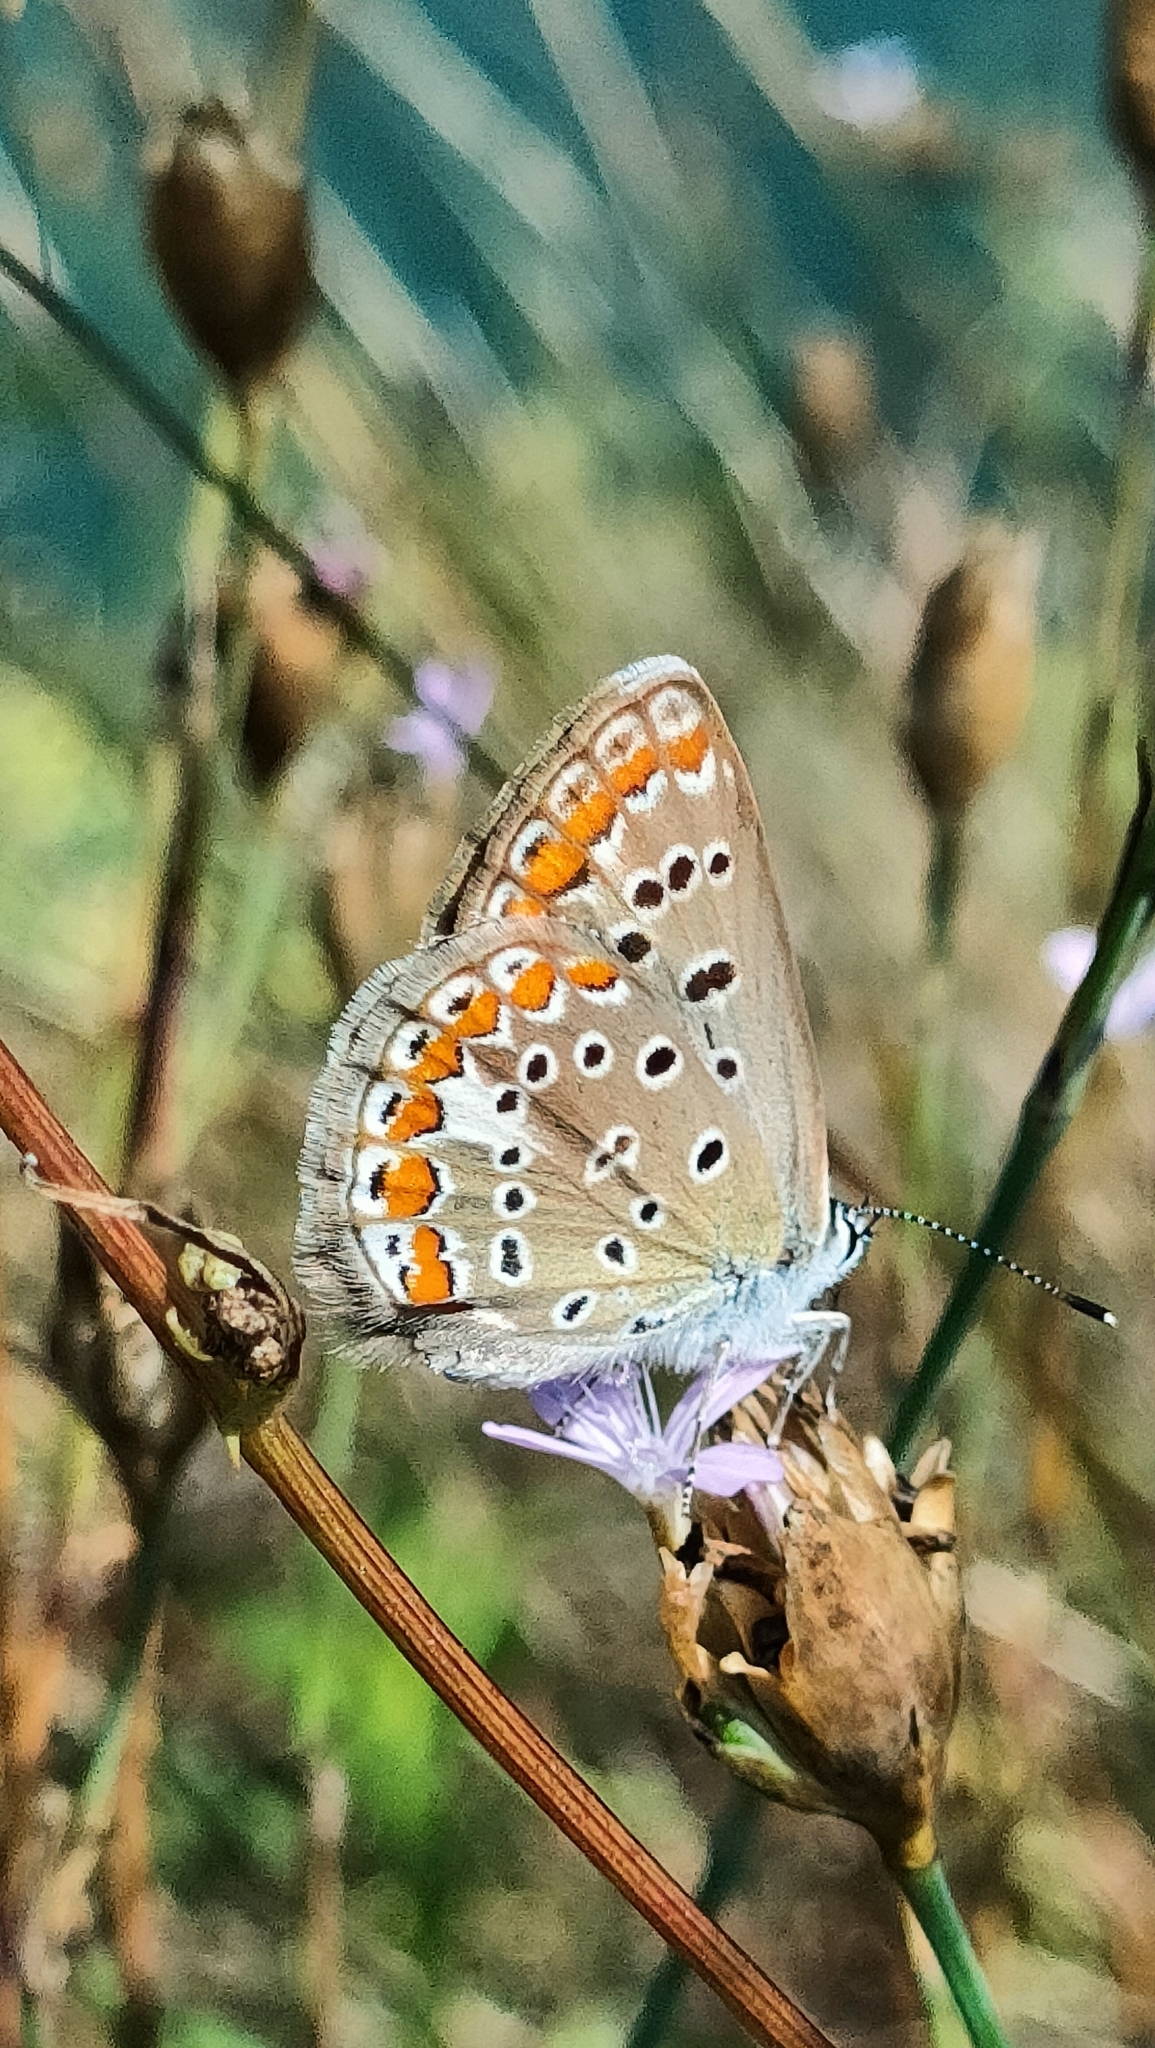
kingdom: Animalia
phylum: Arthropoda
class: Insecta
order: Lepidoptera
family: Lycaenidae
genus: Polyommatus
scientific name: Polyommatus icarus
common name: Common blue
